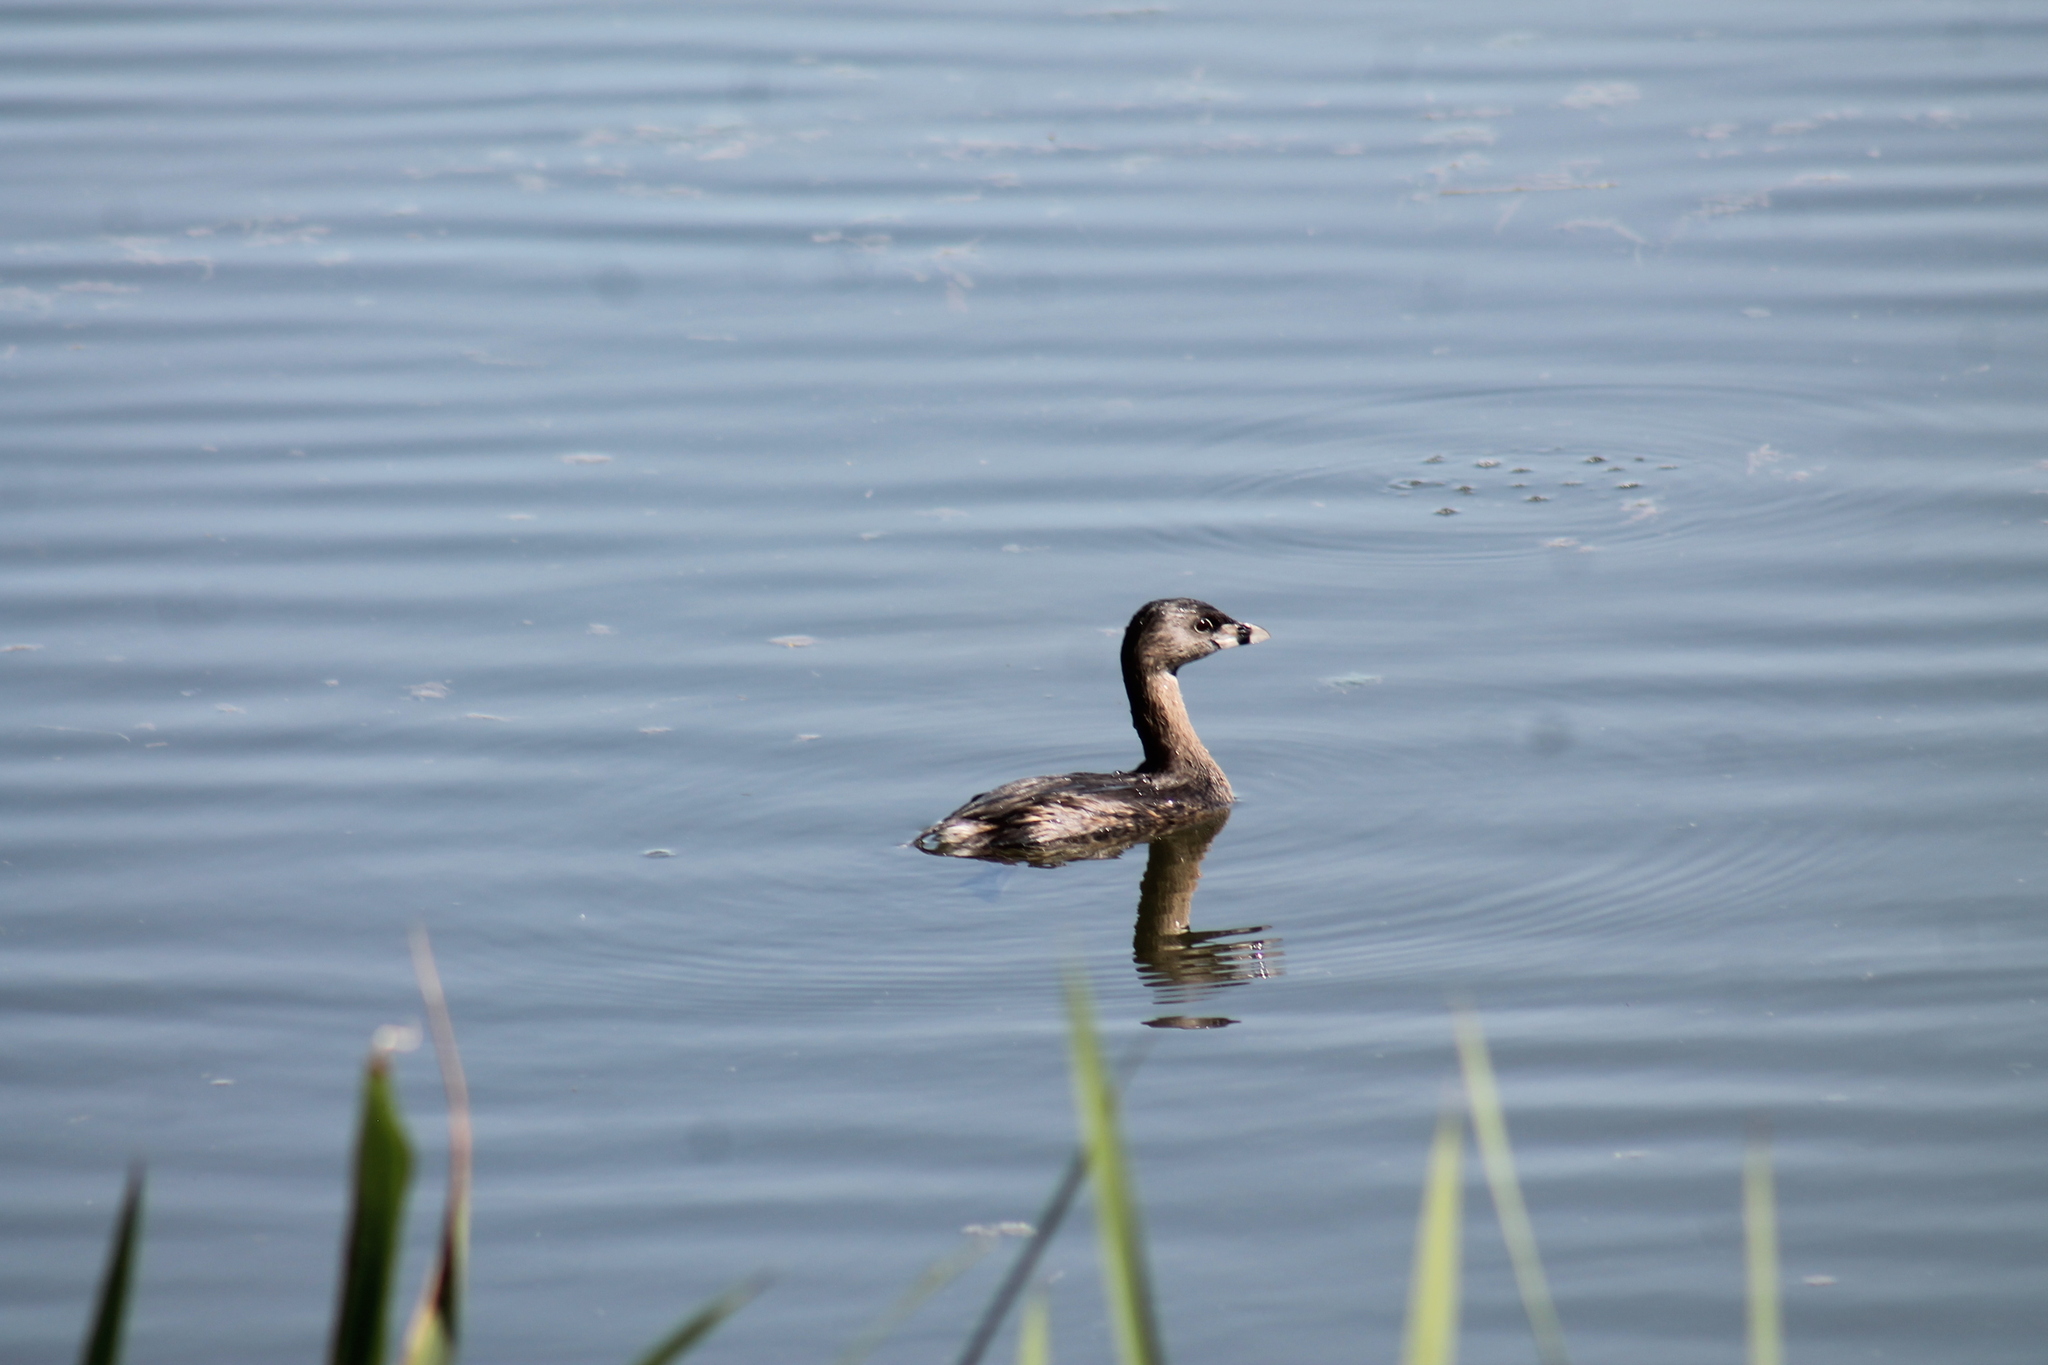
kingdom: Animalia
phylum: Chordata
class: Aves
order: Podicipediformes
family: Podicipedidae
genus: Podilymbus
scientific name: Podilymbus podiceps
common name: Pied-billed grebe
